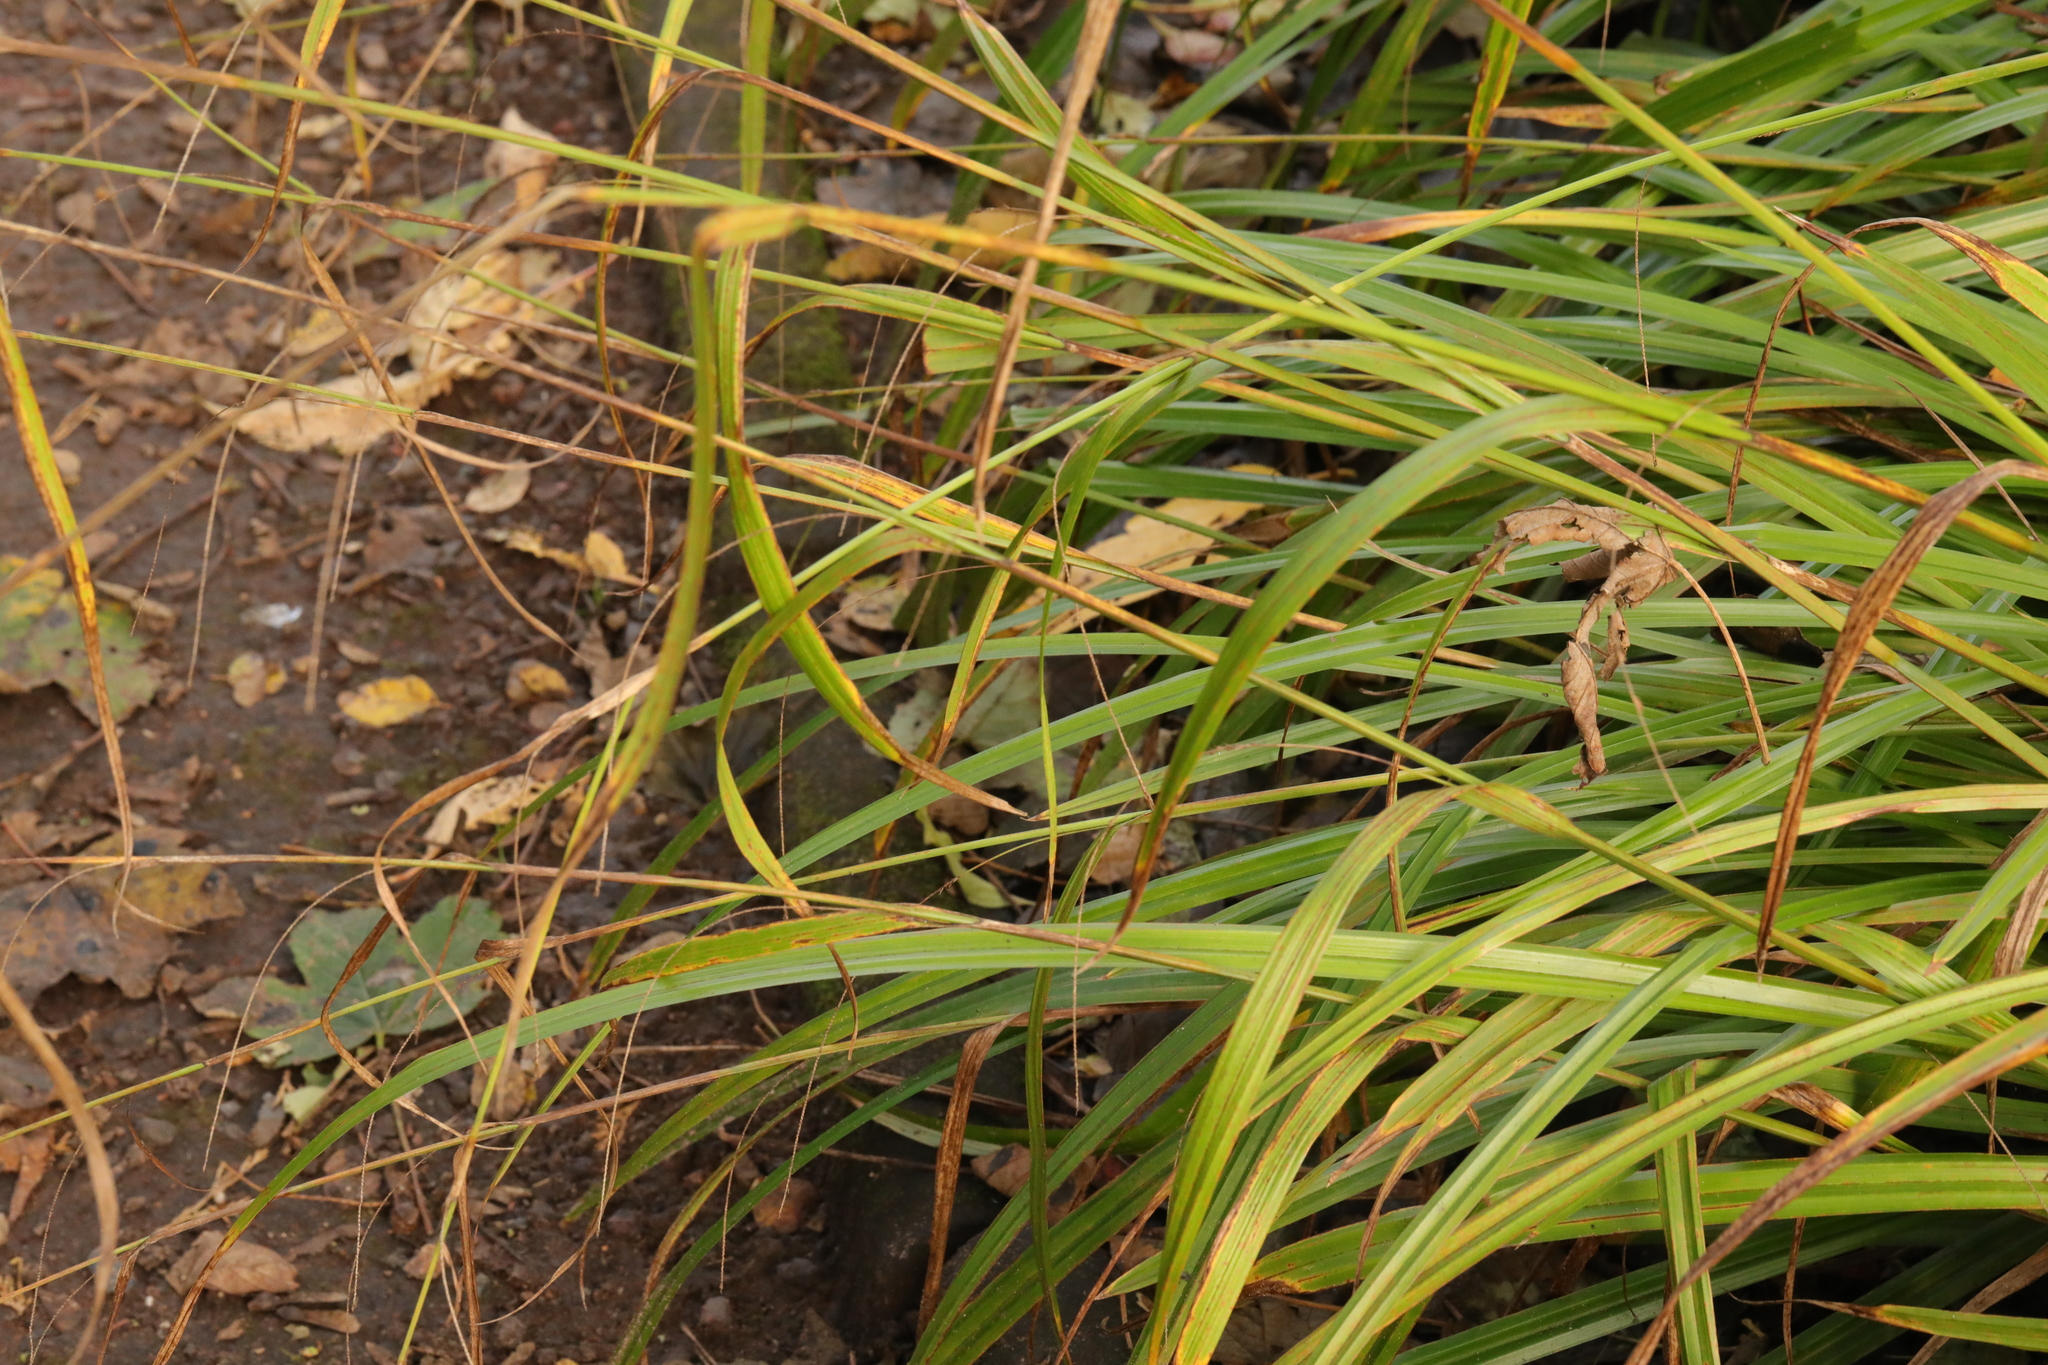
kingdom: Plantae
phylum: Tracheophyta
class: Liliopsida
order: Poales
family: Cyperaceae
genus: Carex
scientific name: Carex pendula
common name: Pendulous sedge
